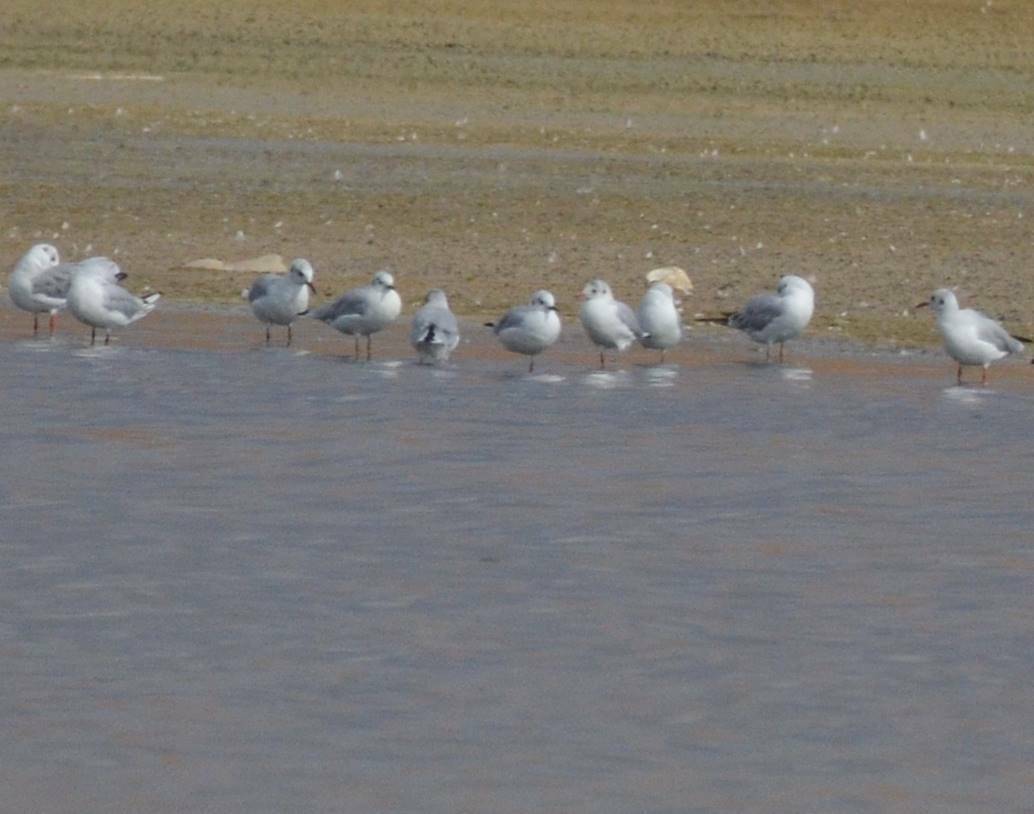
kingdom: Animalia
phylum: Chordata
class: Aves
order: Charadriiformes
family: Laridae
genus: Chroicocephalus
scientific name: Chroicocephalus ridibundus
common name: Black-headed gull
